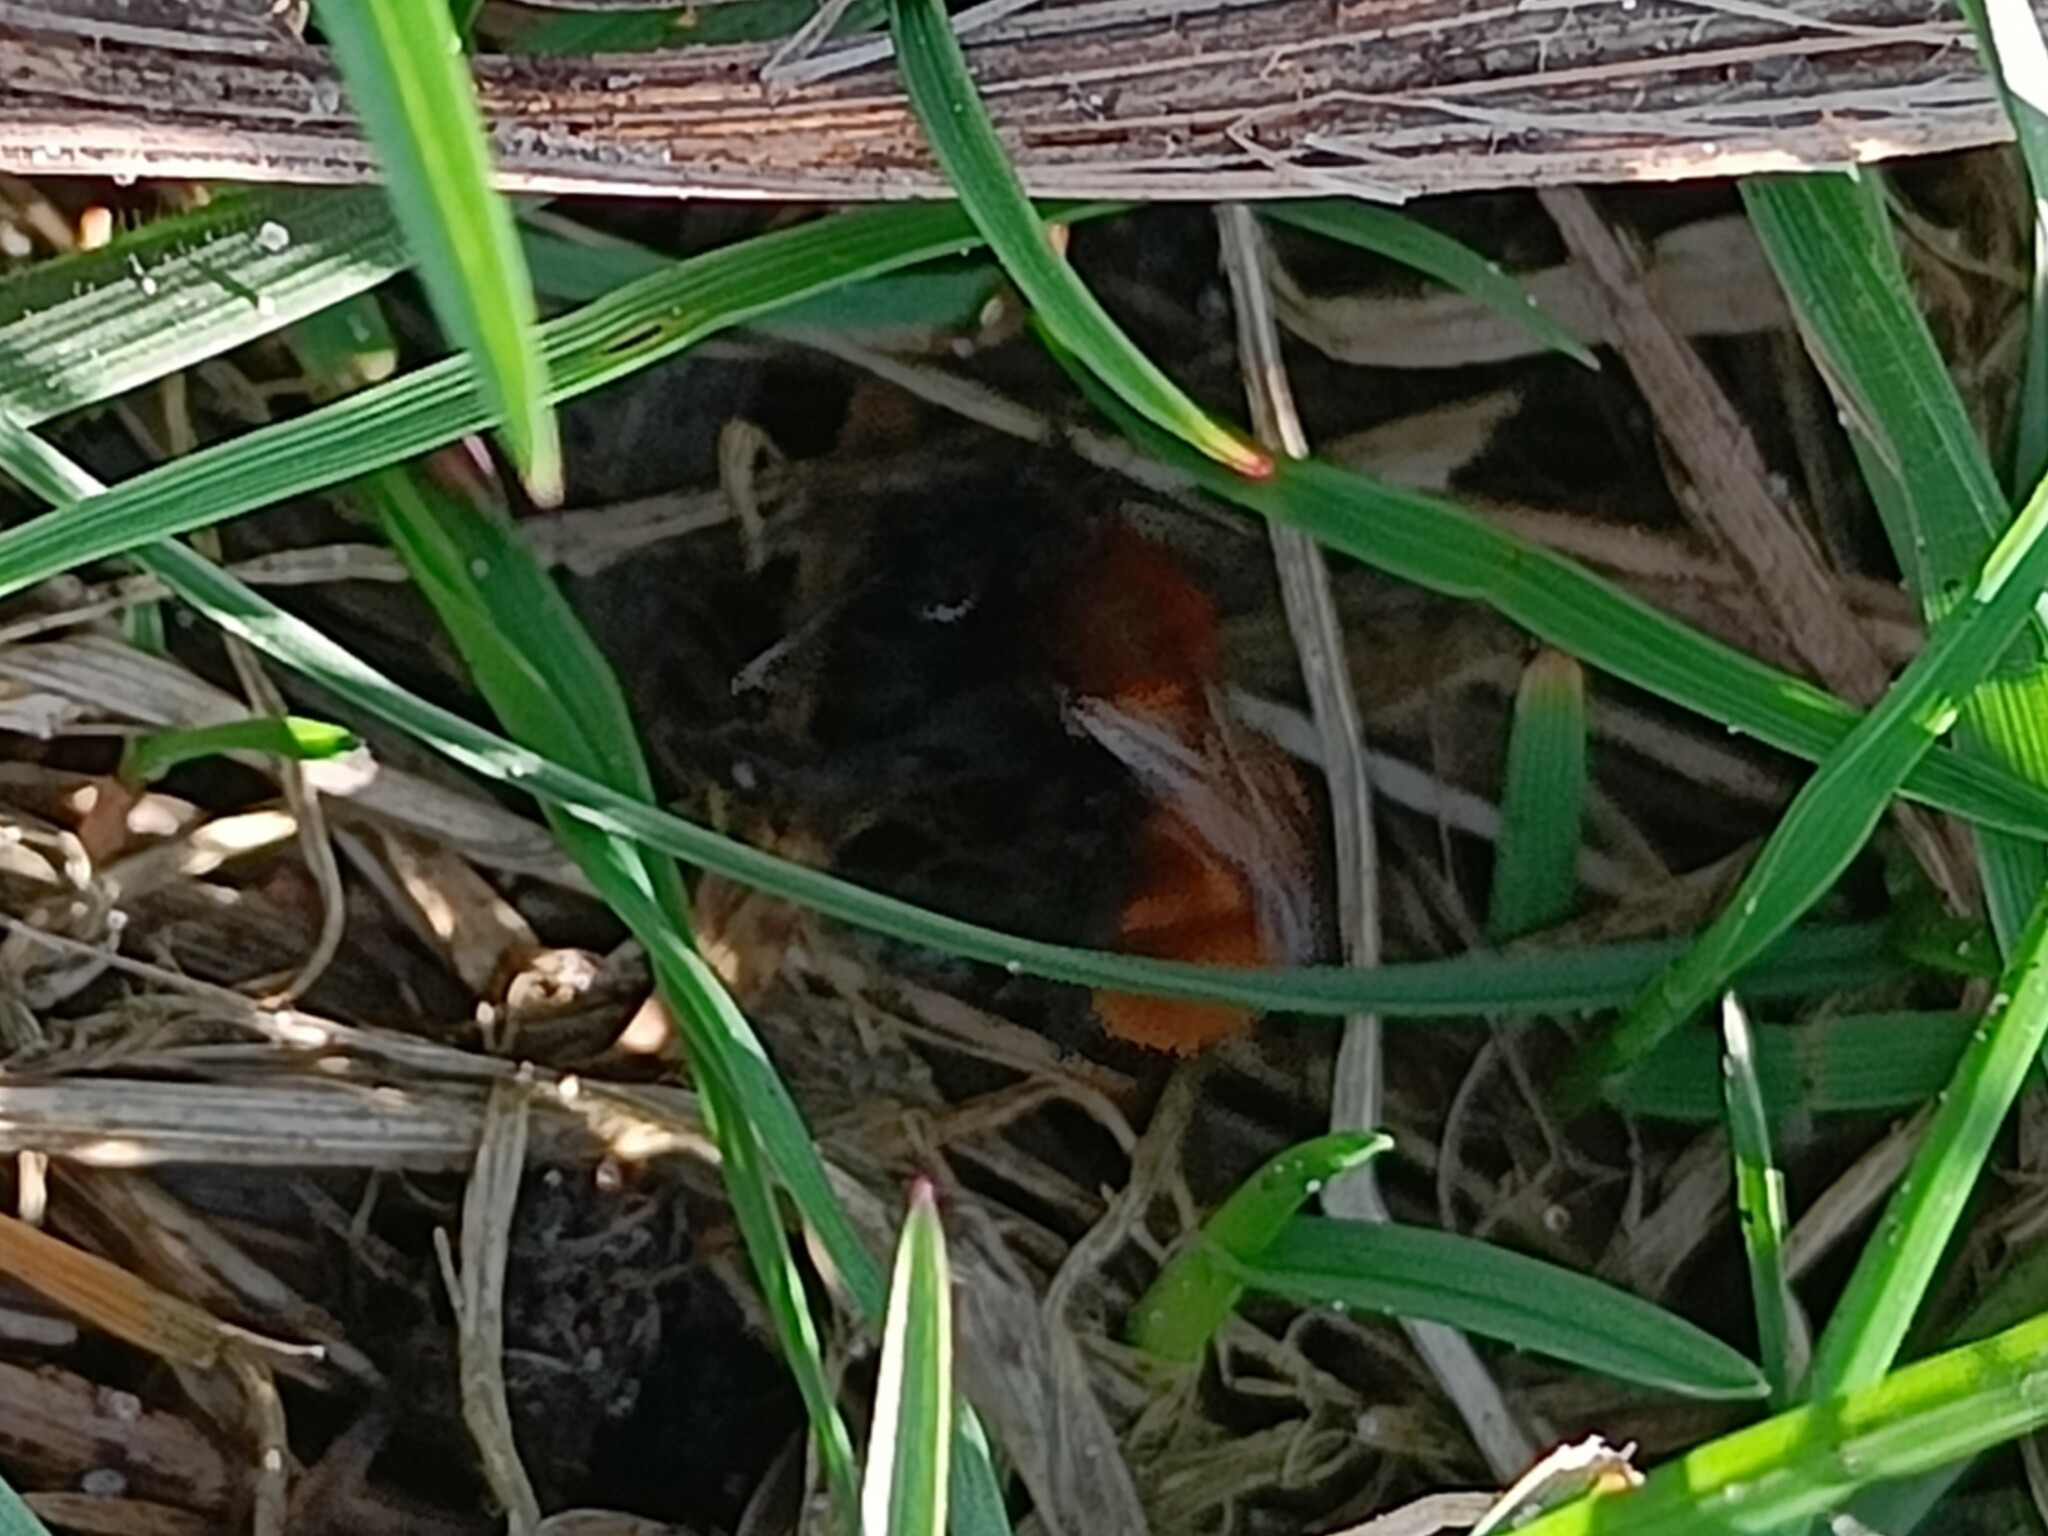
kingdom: Animalia
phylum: Arthropoda
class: Insecta
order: Hymenoptera
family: Andrenidae
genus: Andrena
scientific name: Andrena fulva
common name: Tawny mining bee
